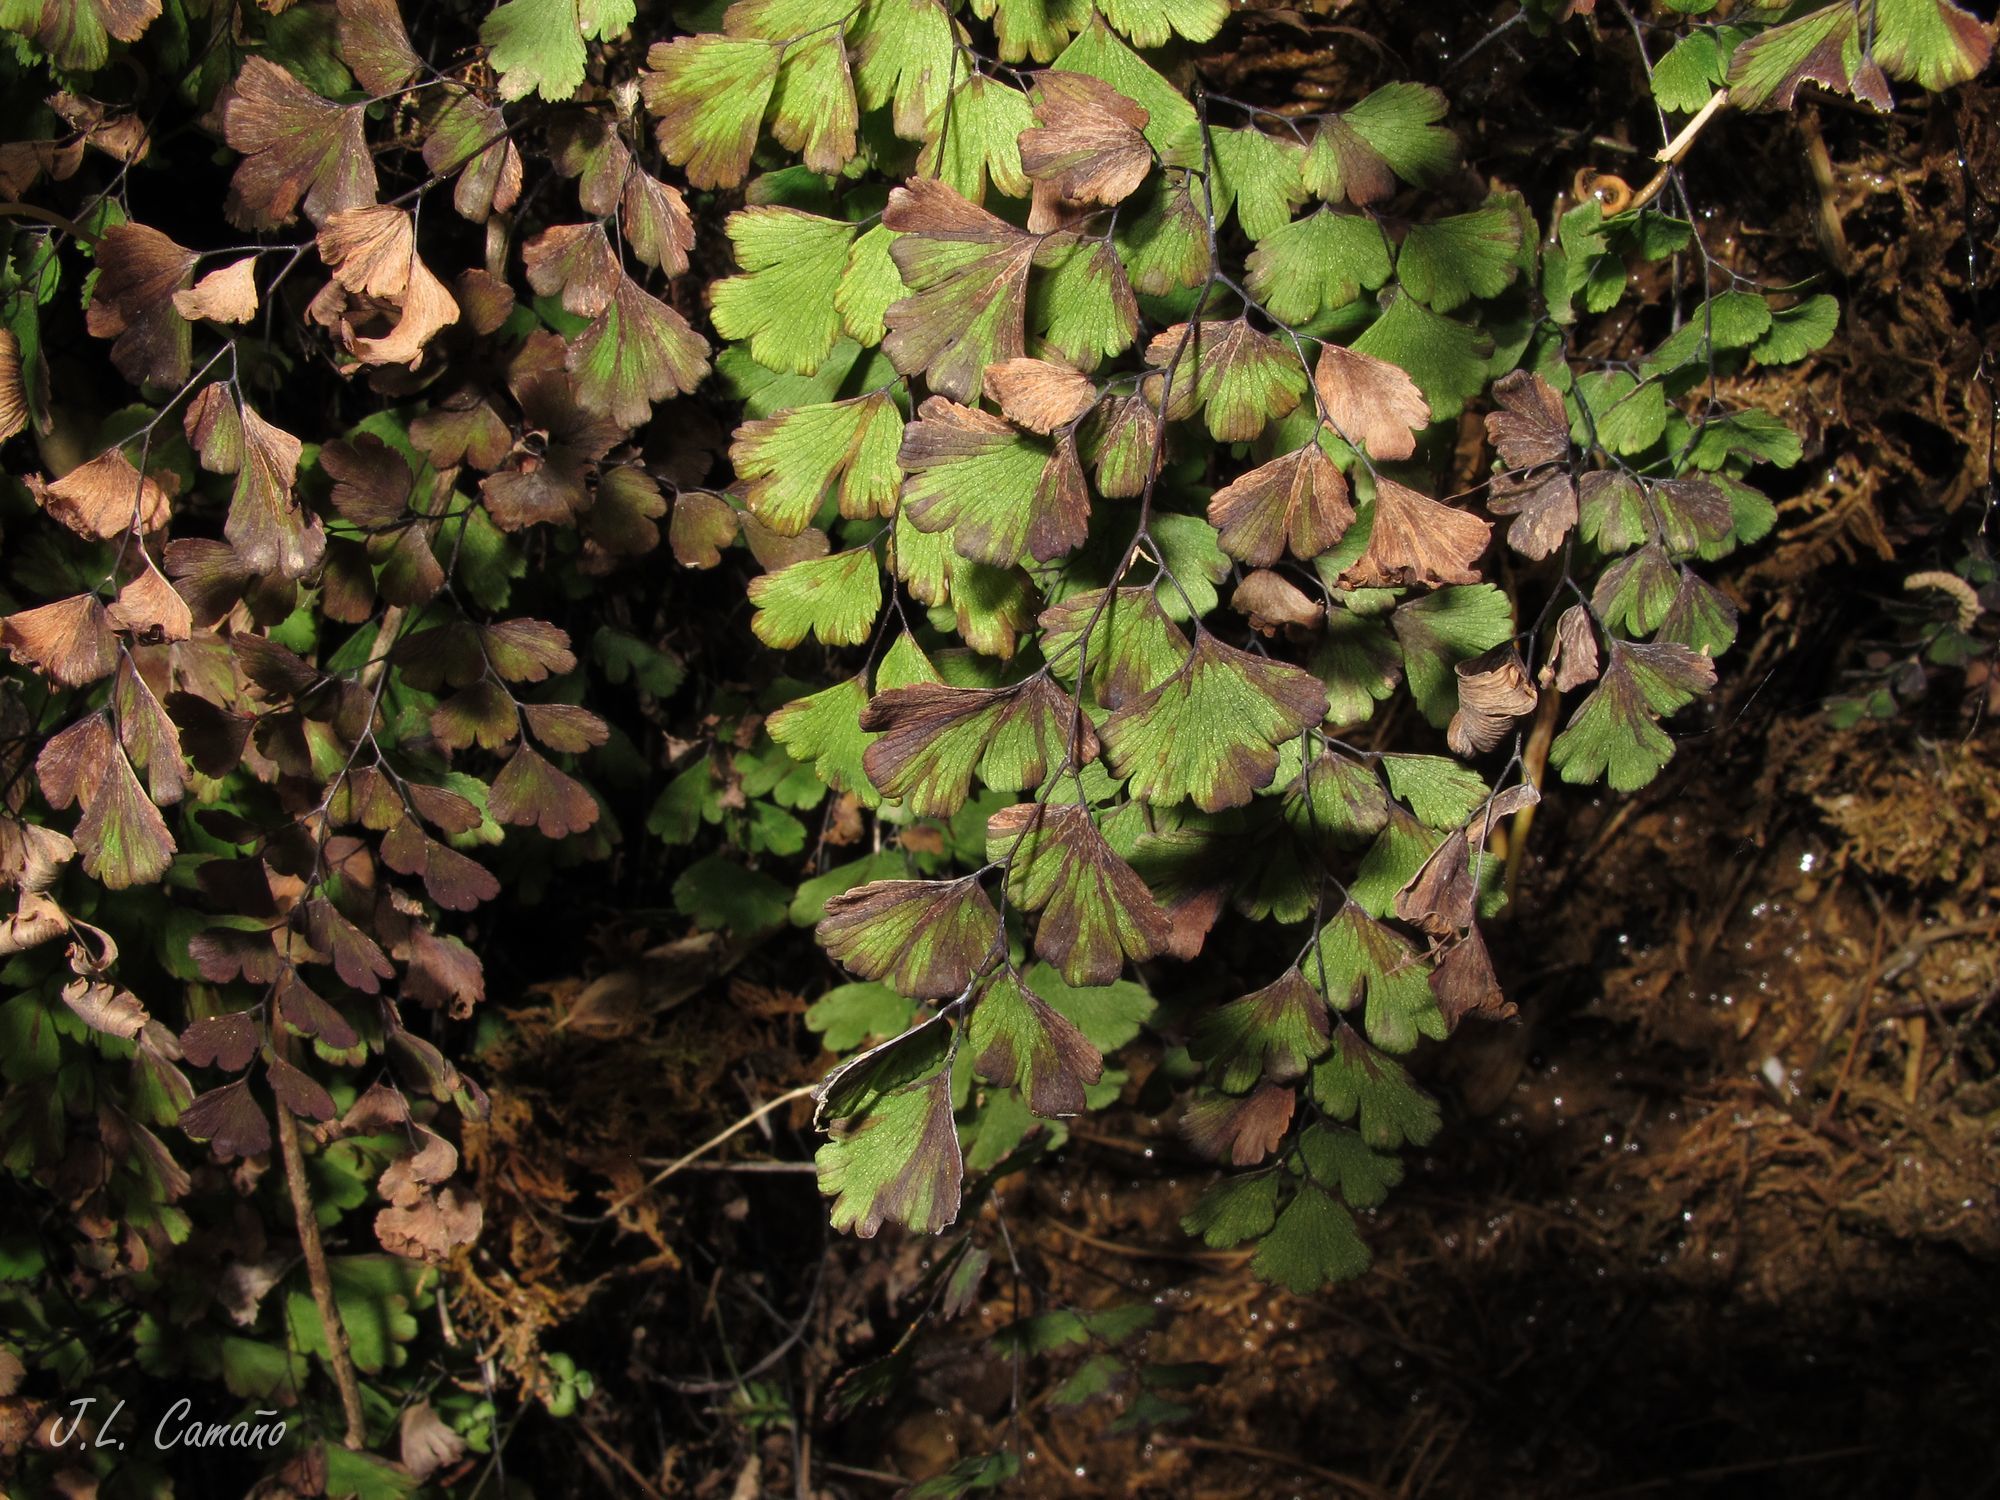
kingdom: Plantae
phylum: Tracheophyta
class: Polypodiopsida
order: Polypodiales
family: Pteridaceae
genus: Adiantum
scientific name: Adiantum capillus-veneris
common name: Maidenhair fern
